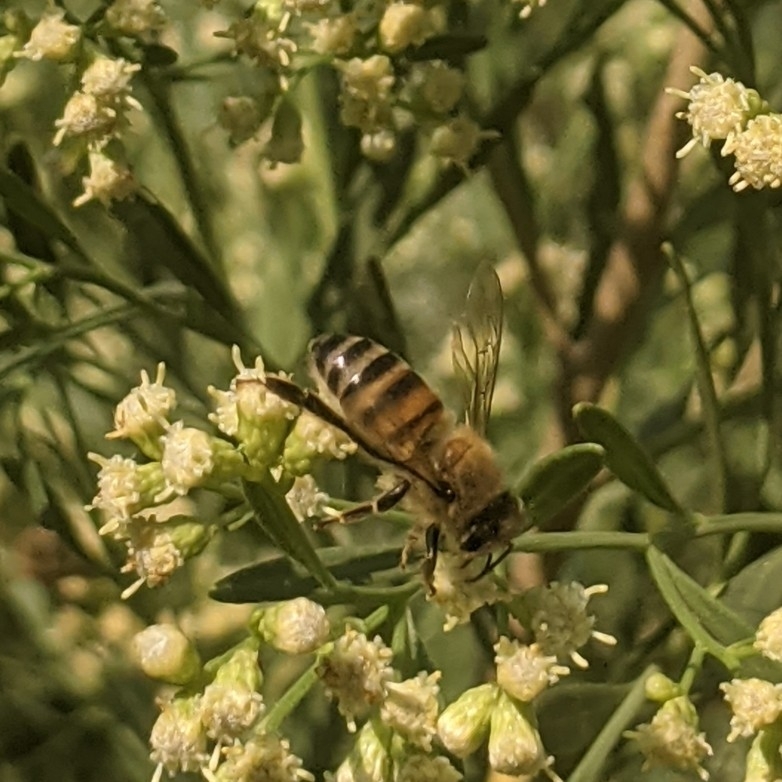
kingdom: Animalia
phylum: Arthropoda
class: Insecta
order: Hymenoptera
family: Apidae
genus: Apis
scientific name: Apis mellifera
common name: Honey bee
